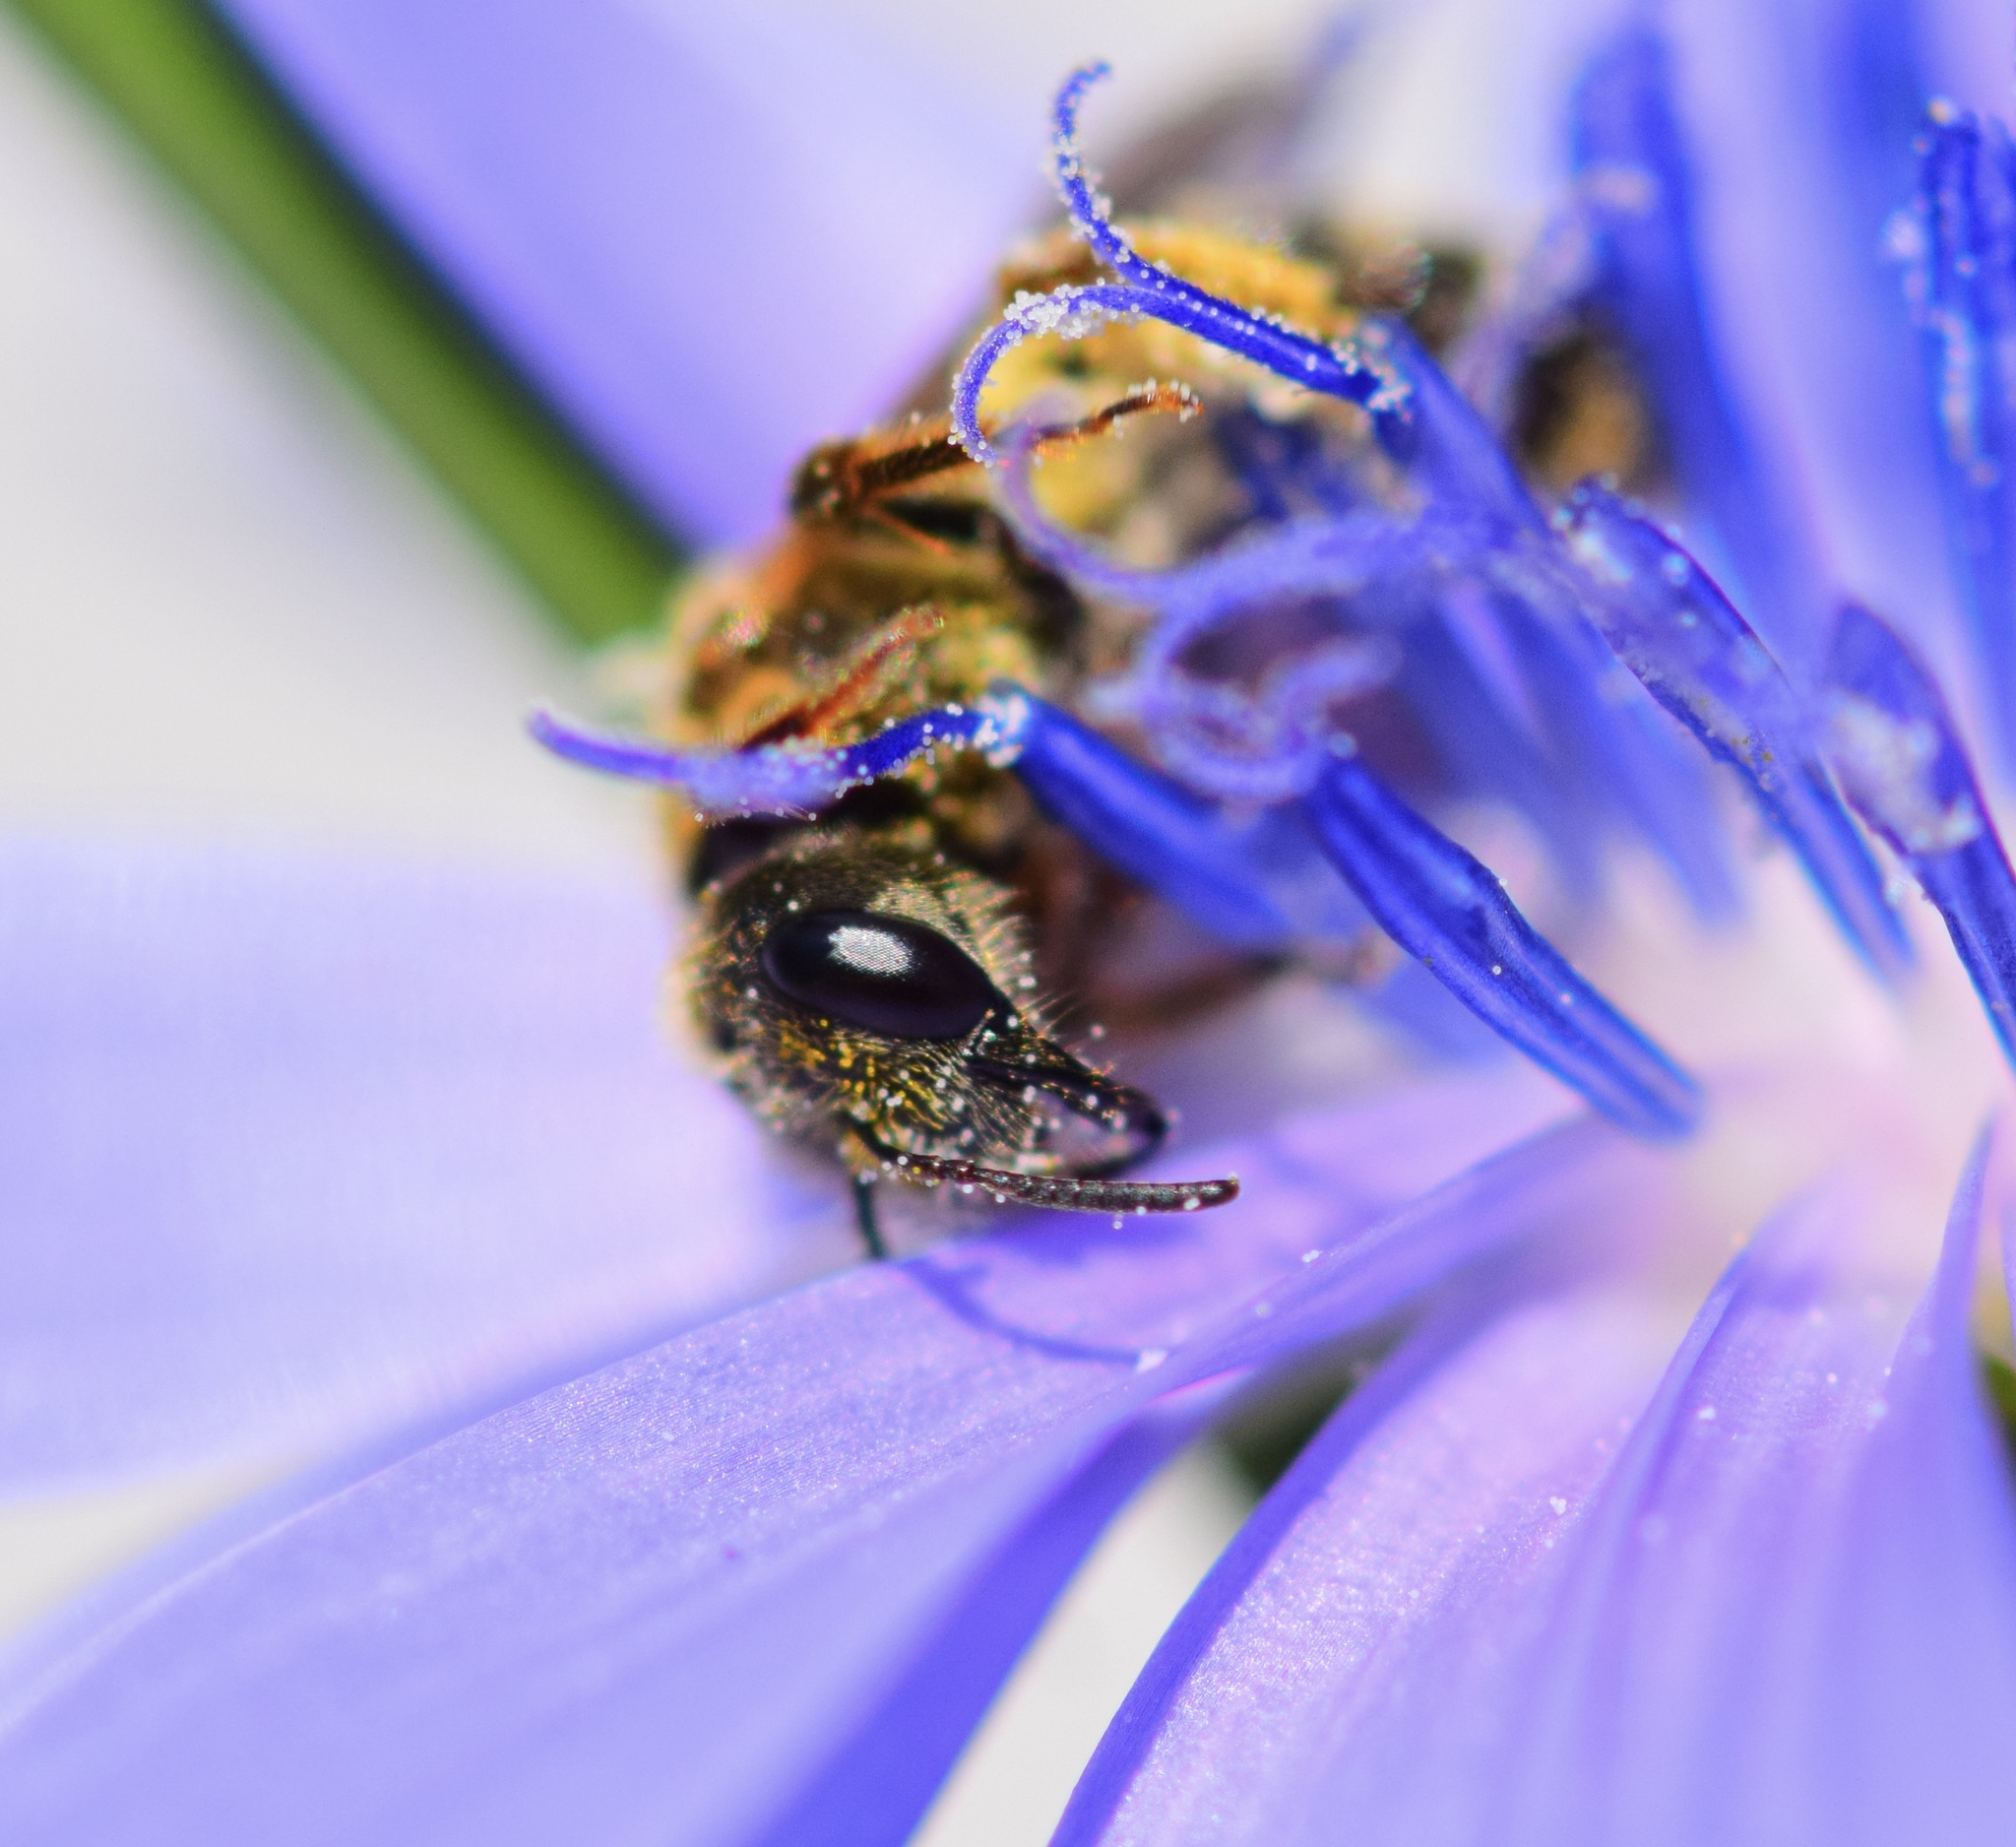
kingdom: Animalia
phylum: Arthropoda
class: Insecta
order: Hymenoptera
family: Halictidae
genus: Halictus
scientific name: Halictus ligatus
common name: Ligated furrow bee
